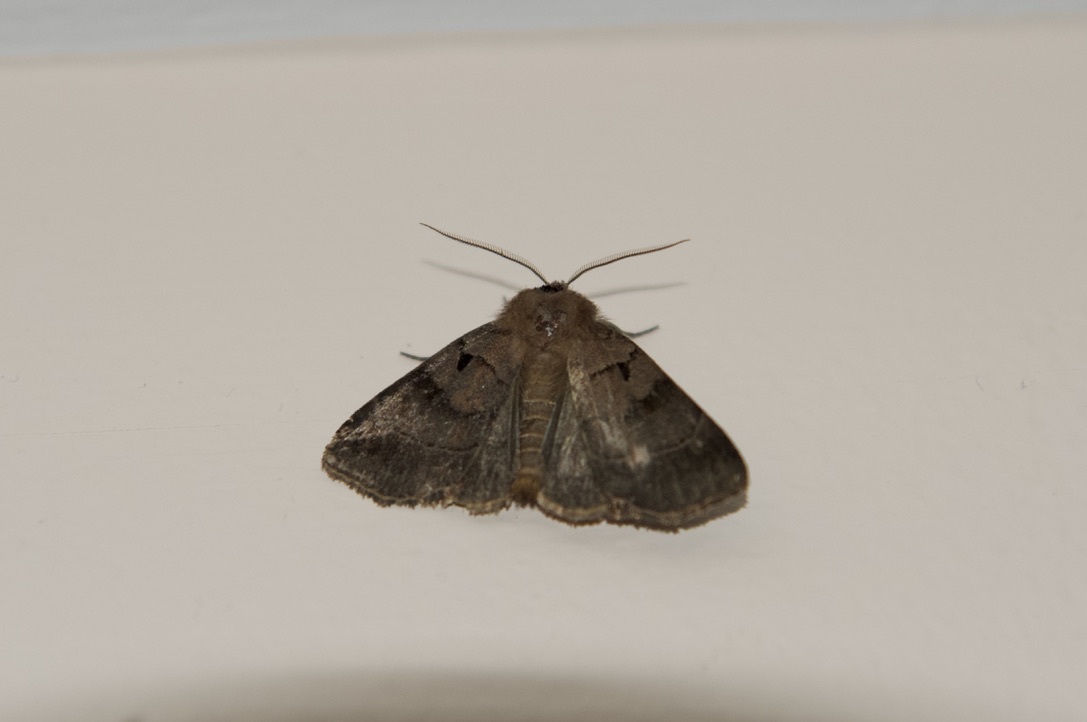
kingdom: Animalia
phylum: Arthropoda
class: Insecta
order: Lepidoptera
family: Noctuidae
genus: Agnorisma
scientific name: Agnorisma badinodis
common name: Pale-banded dart
